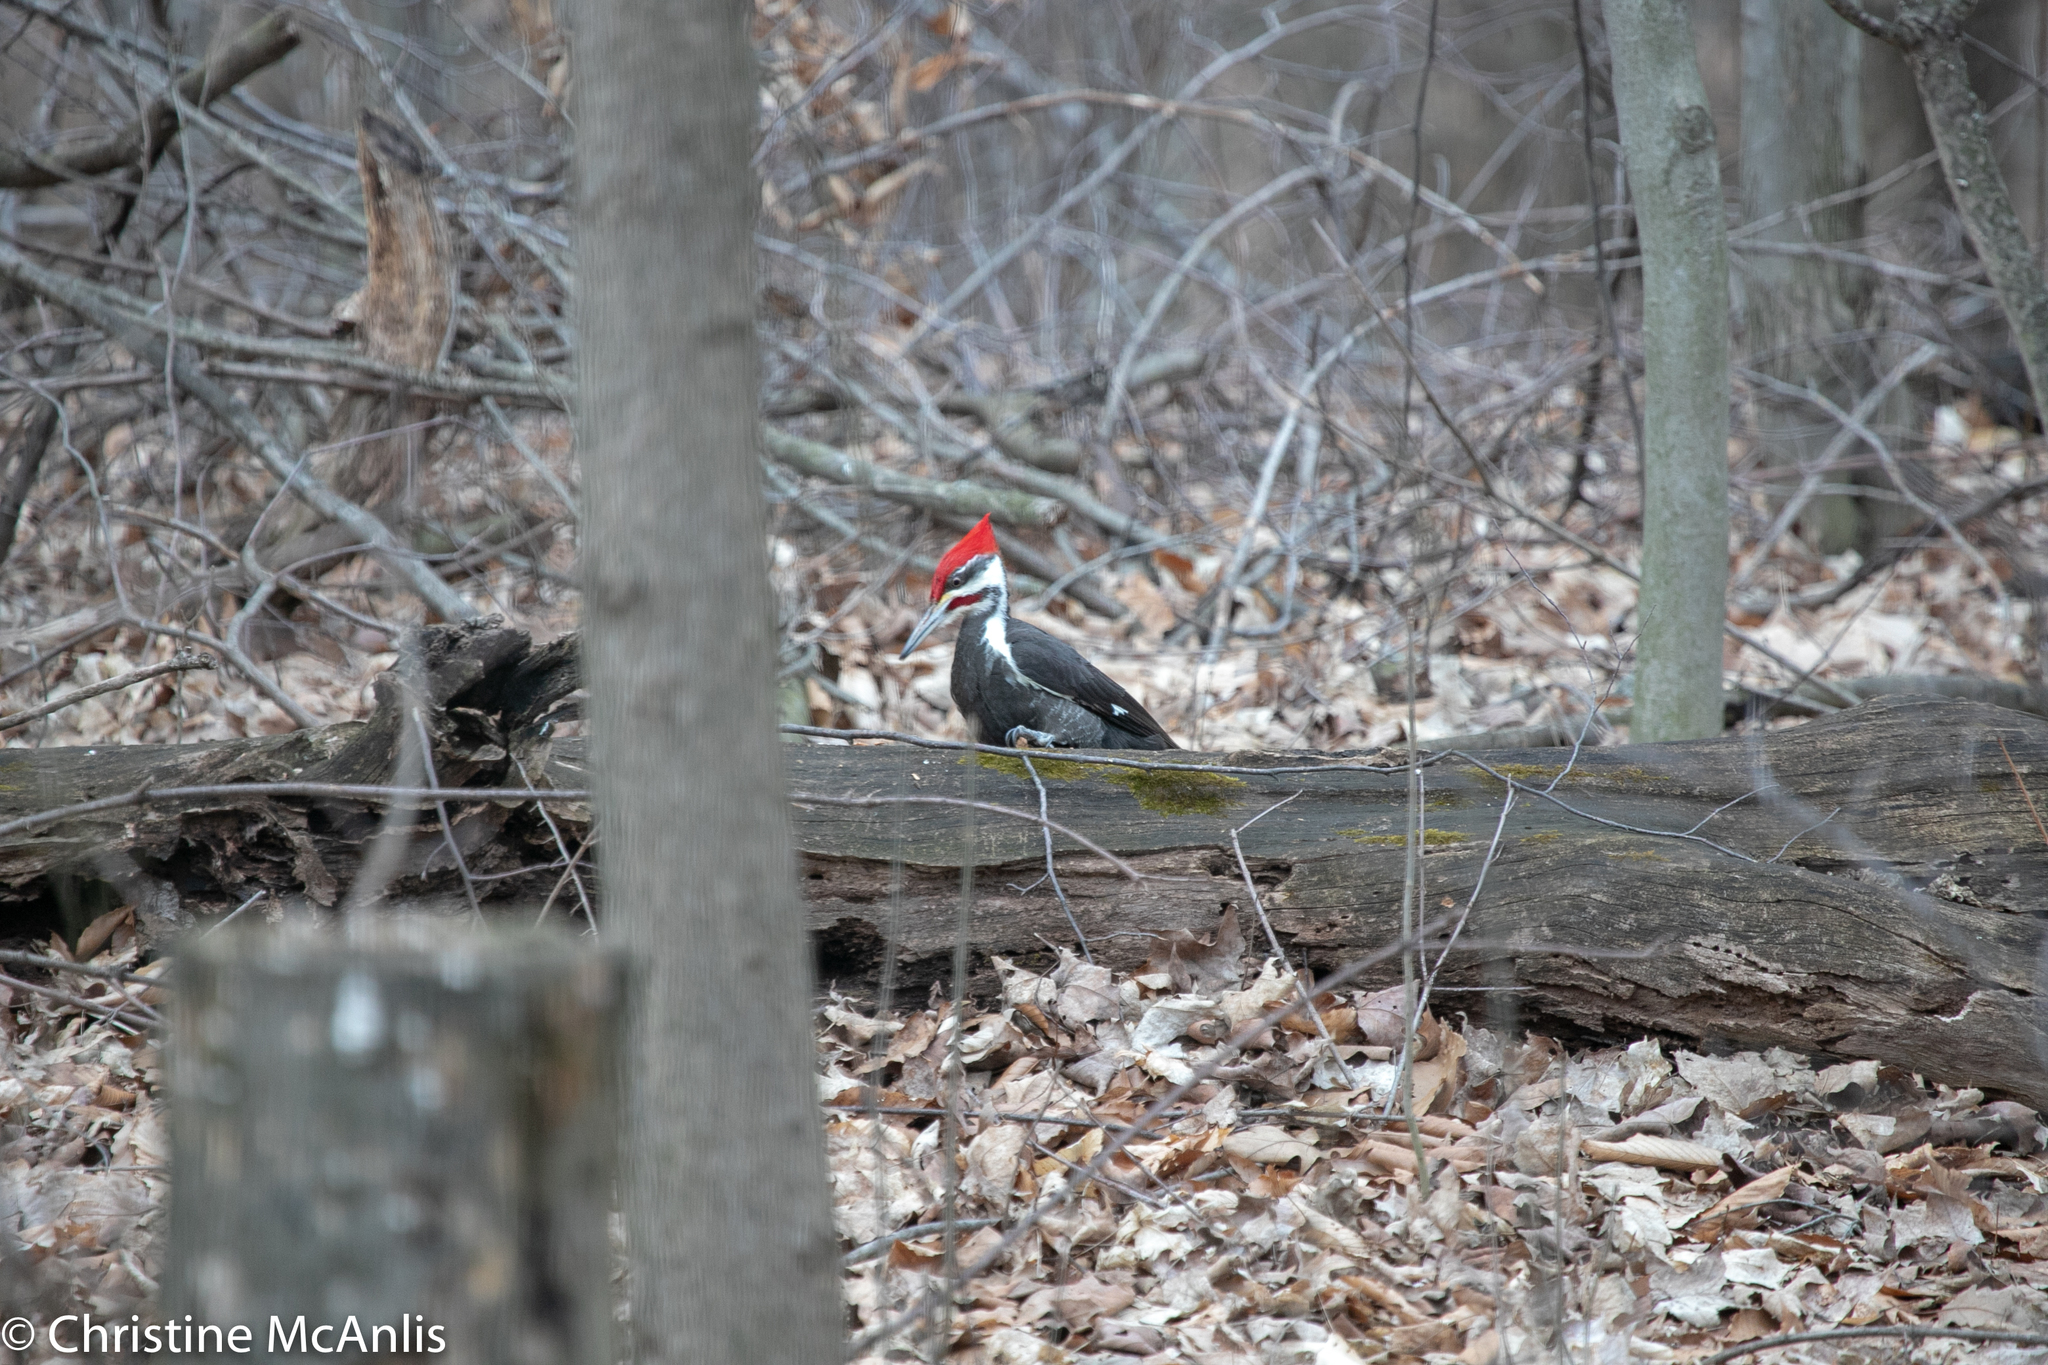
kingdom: Animalia
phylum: Chordata
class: Aves
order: Piciformes
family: Picidae
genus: Dryocopus
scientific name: Dryocopus pileatus
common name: Pileated woodpecker
